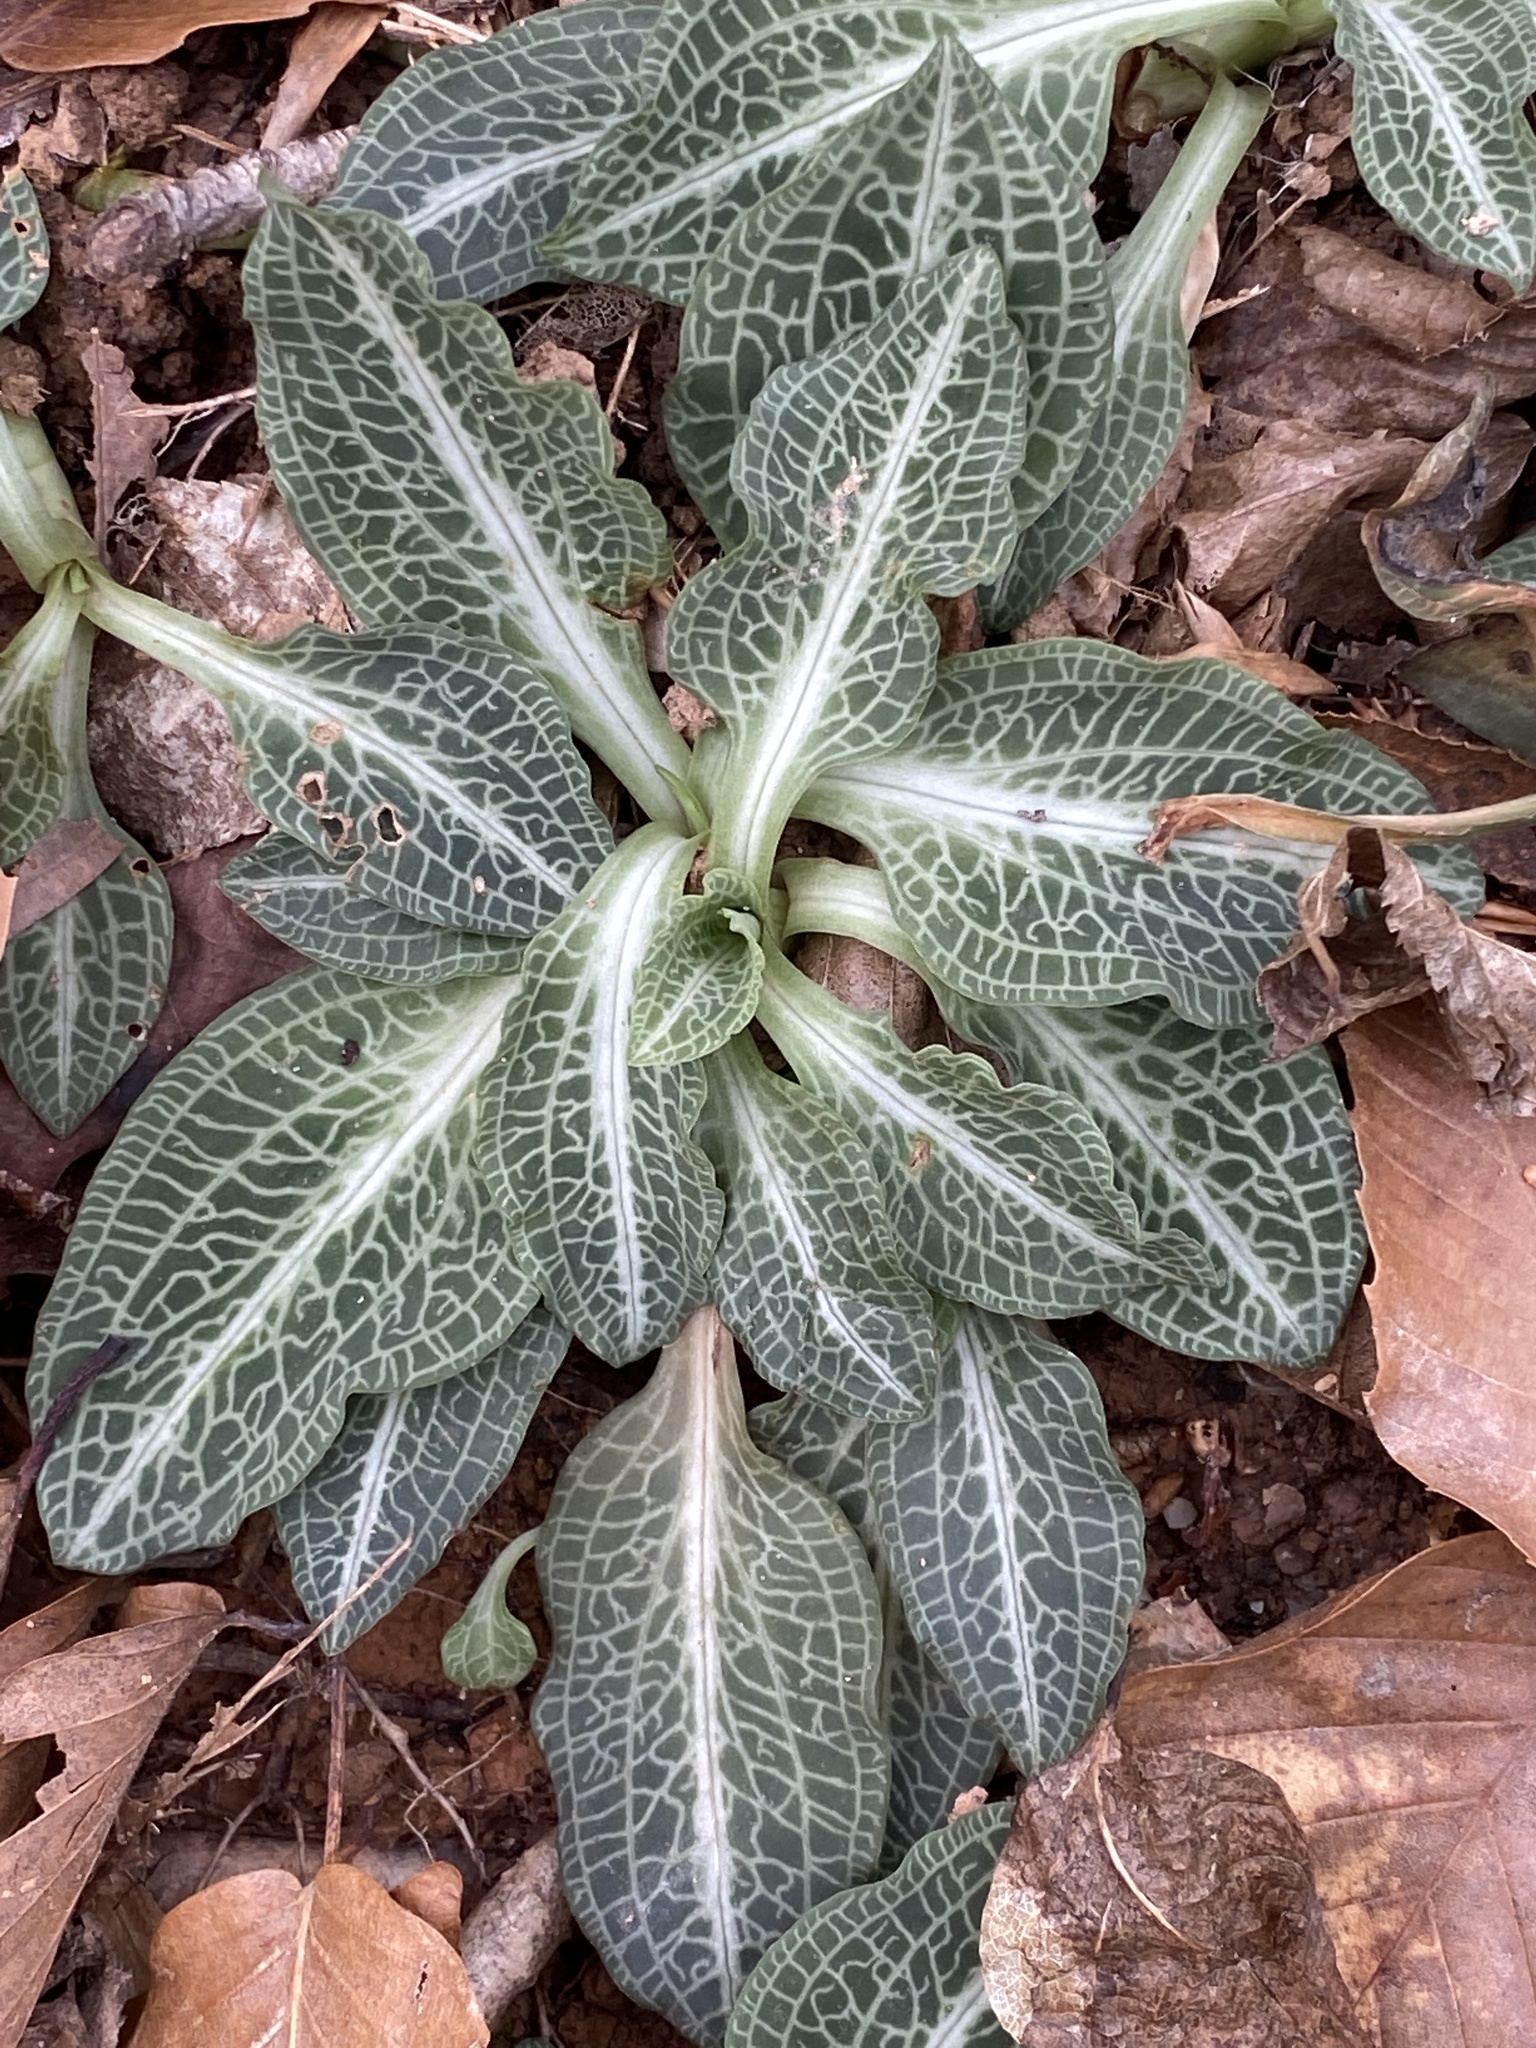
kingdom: Plantae
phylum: Tracheophyta
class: Liliopsida
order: Asparagales
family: Orchidaceae
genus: Goodyera
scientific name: Goodyera pubescens
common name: Downy rattlesnake-plantain
